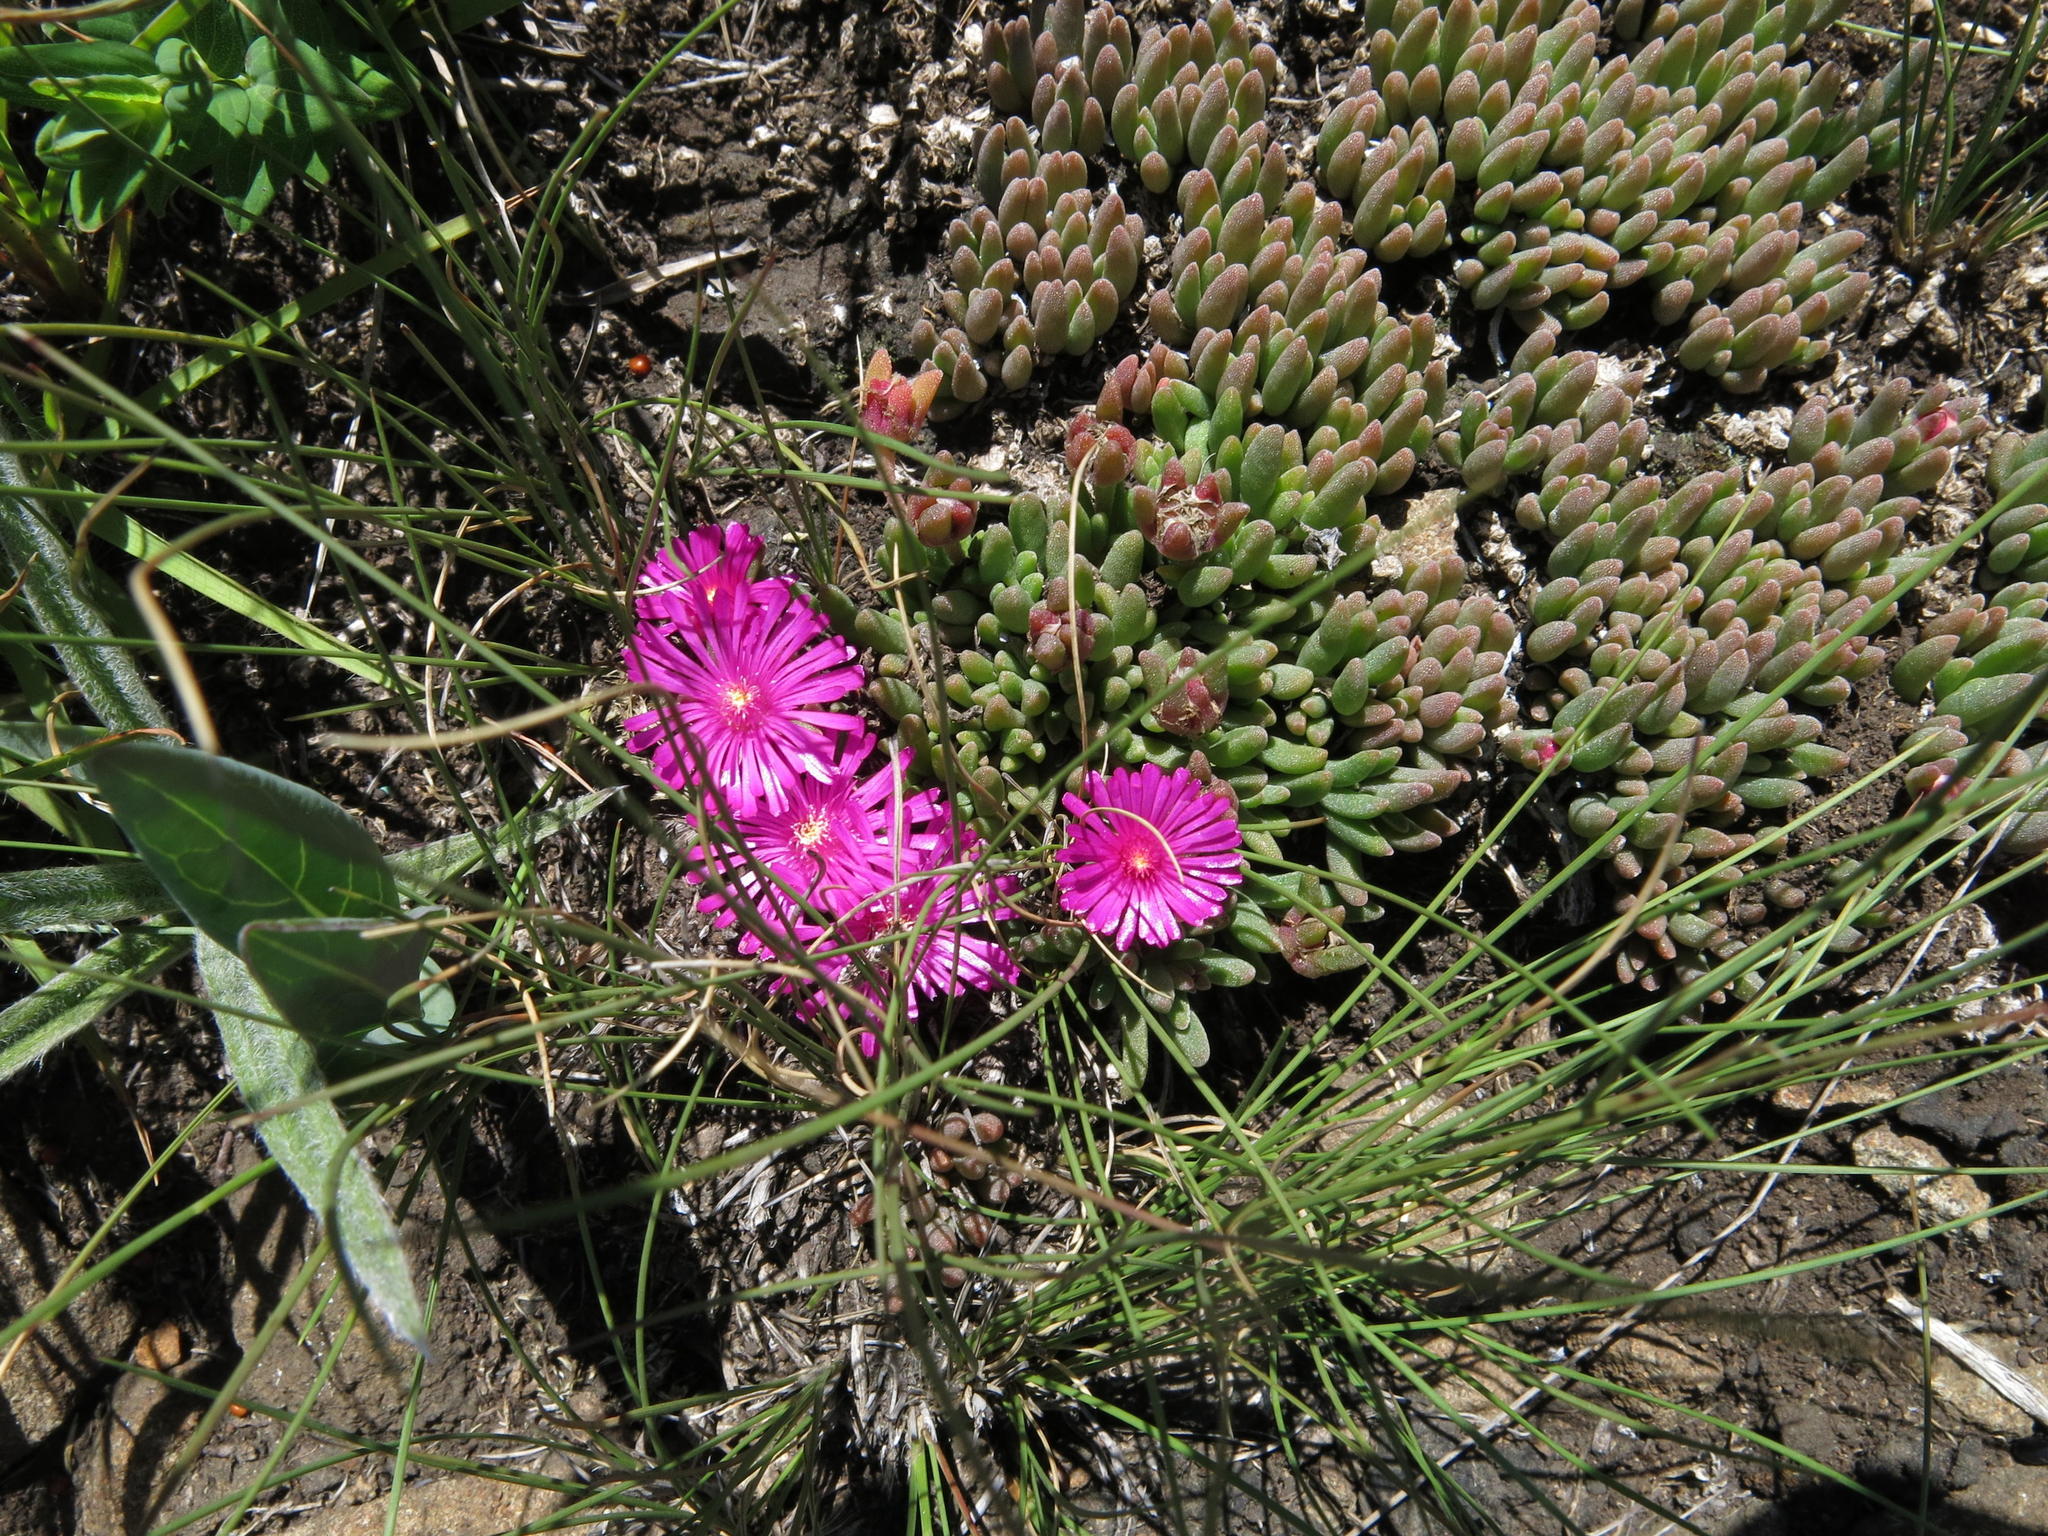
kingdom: Plantae
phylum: Tracheophyta
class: Magnoliopsida
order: Caryophyllales
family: Aizoaceae
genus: Delosperma
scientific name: Delosperma lavisiae
